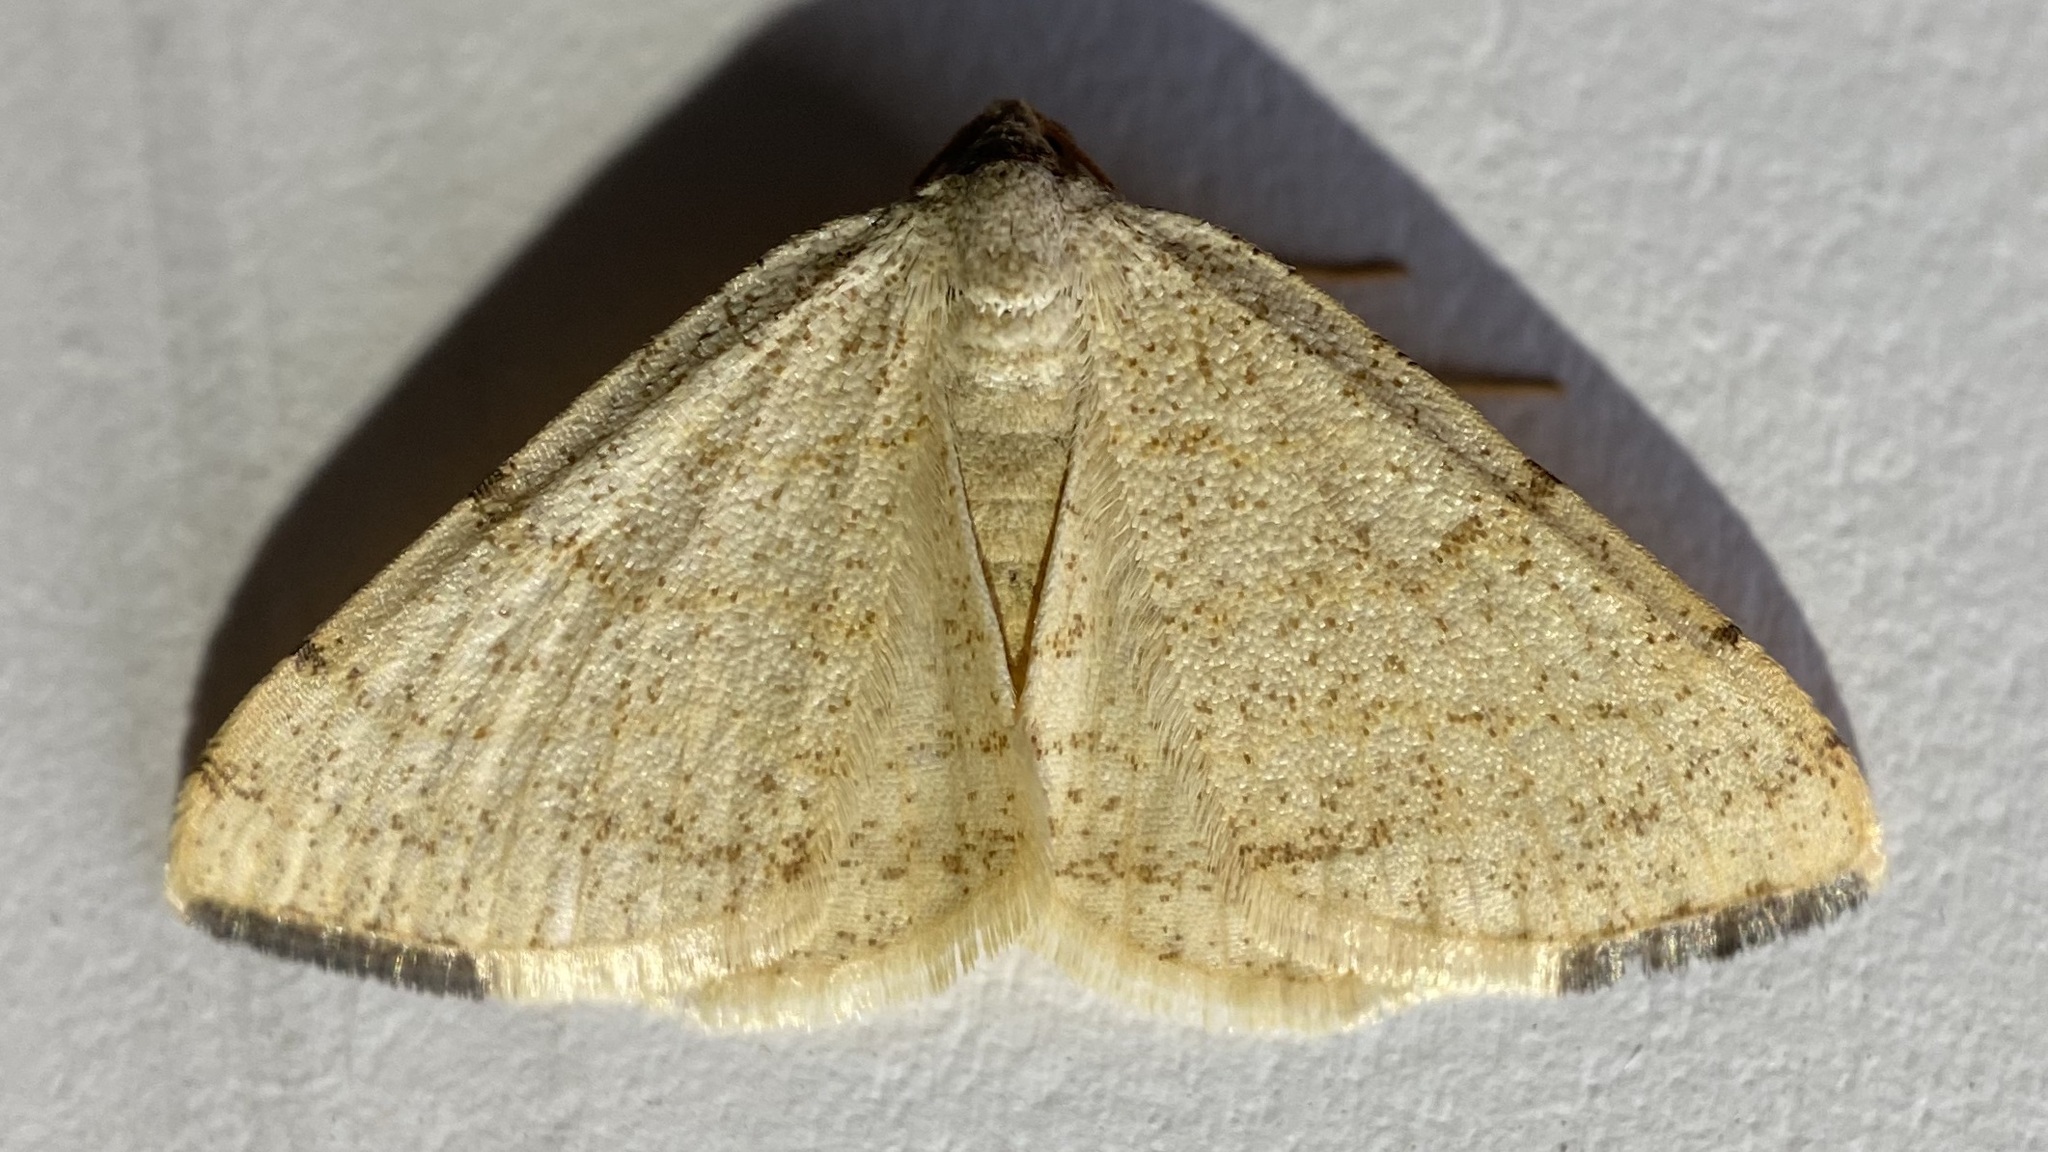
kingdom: Animalia
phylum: Arthropoda
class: Insecta
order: Lepidoptera
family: Geometridae
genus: Macaria
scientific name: Macaria octolineata
